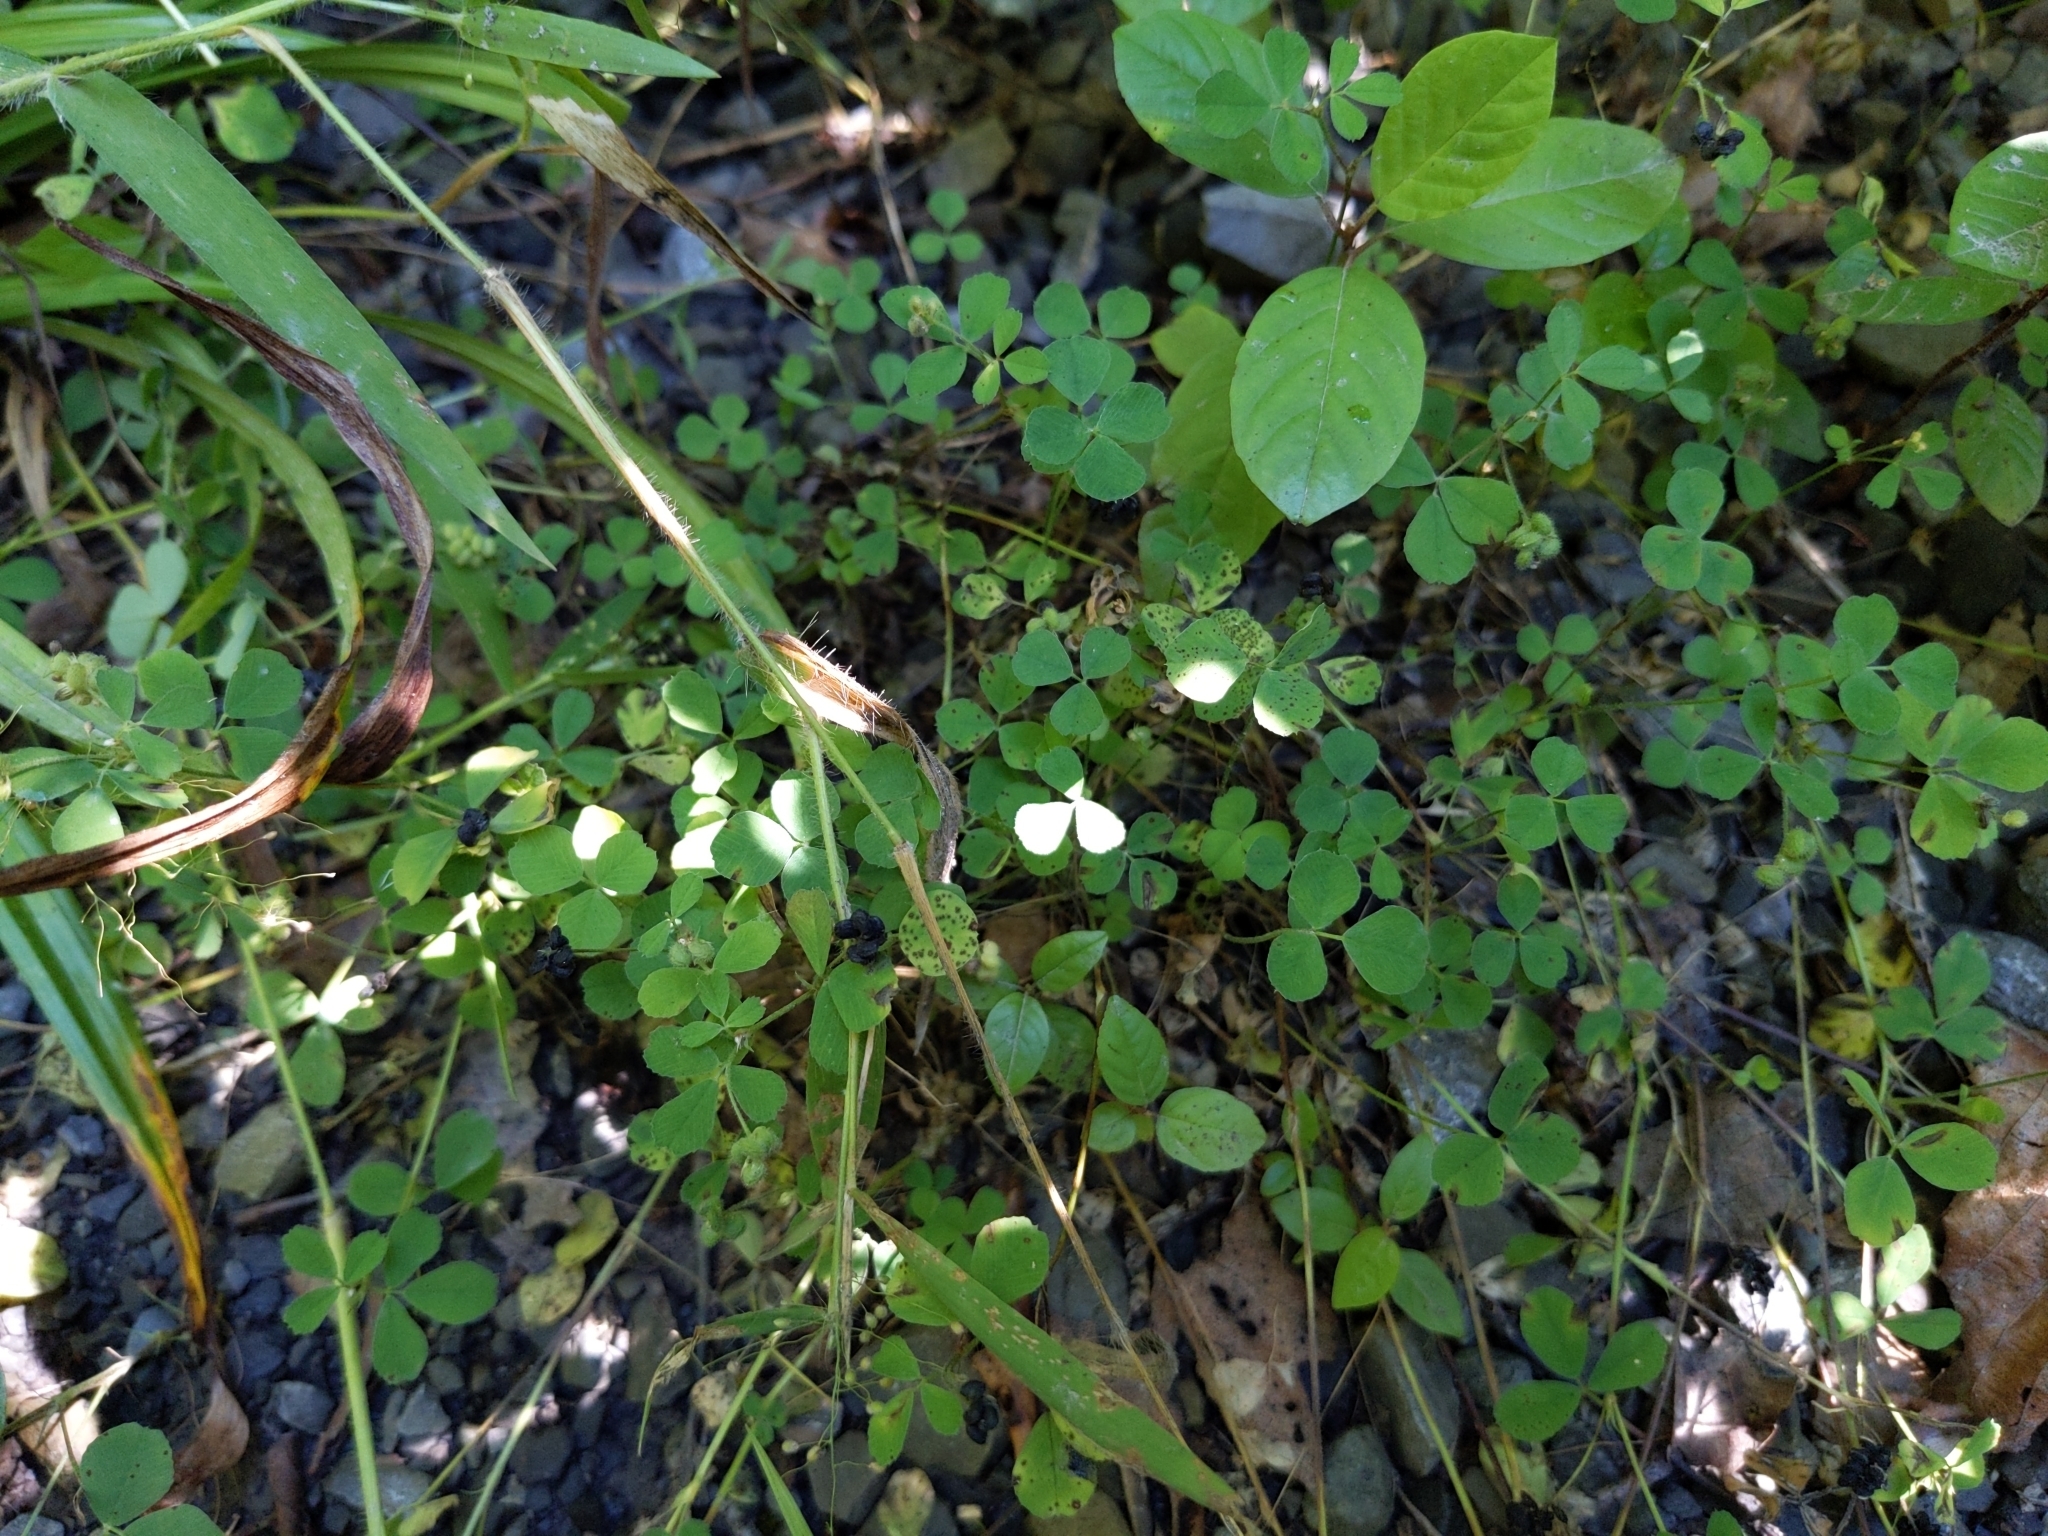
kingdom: Plantae
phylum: Tracheophyta
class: Magnoliopsida
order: Fabales
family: Fabaceae
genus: Medicago
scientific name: Medicago lupulina
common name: Black medick
